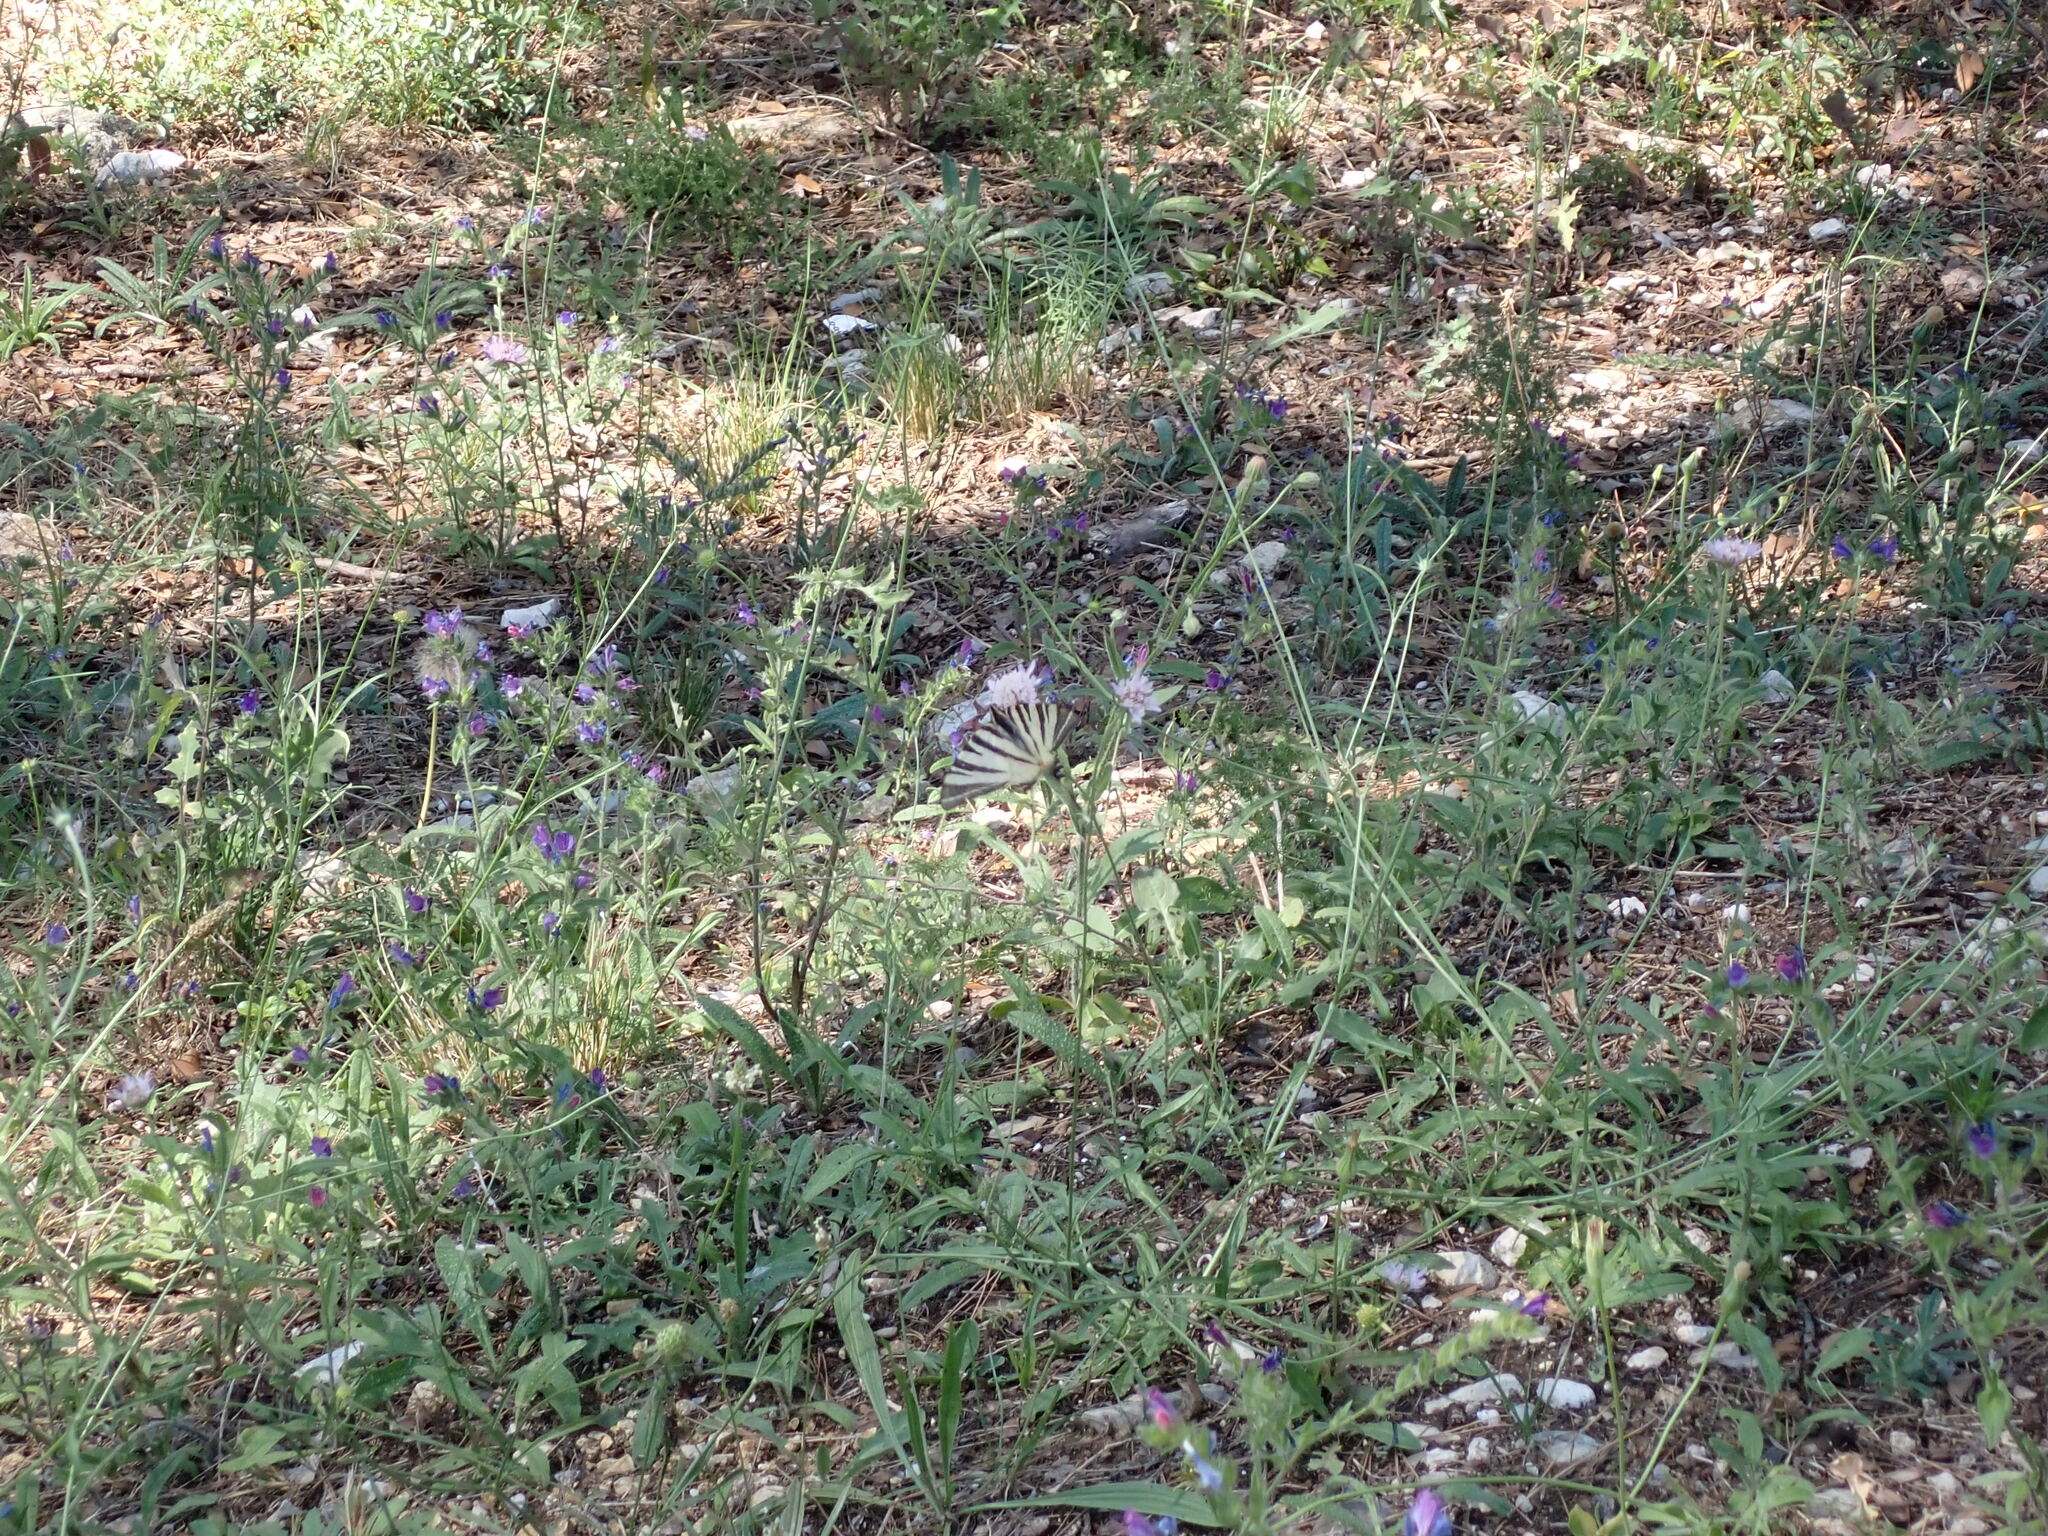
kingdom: Animalia
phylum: Arthropoda
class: Insecta
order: Lepidoptera
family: Papilionidae
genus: Iphiclides
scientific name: Iphiclides podalirius
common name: Scarce swallowtail
